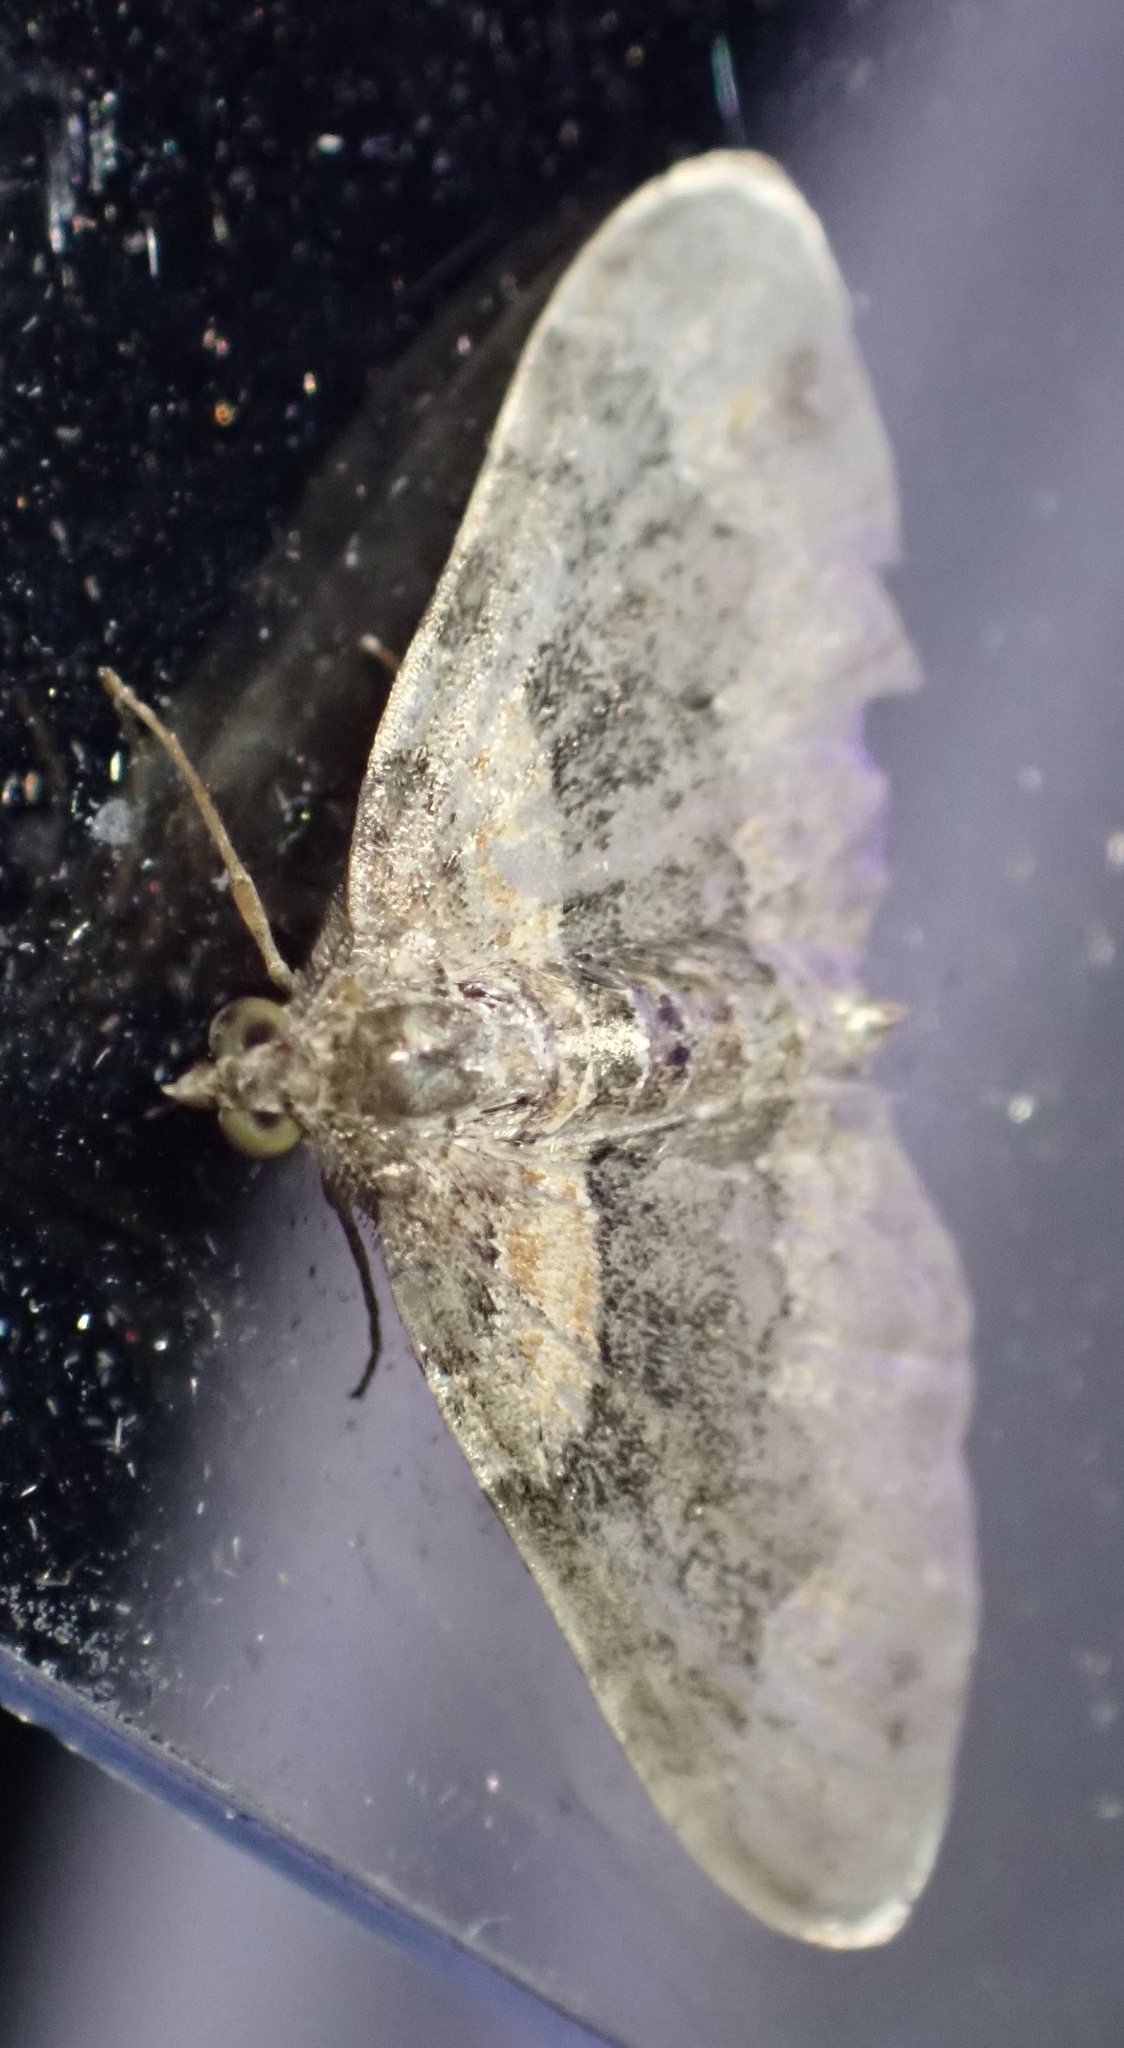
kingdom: Animalia
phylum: Arthropoda
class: Insecta
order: Lepidoptera
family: Geometridae
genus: Xanthorhoe
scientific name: Xanthorhoe ferrugata
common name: Dark-barred twin-spot carpet
